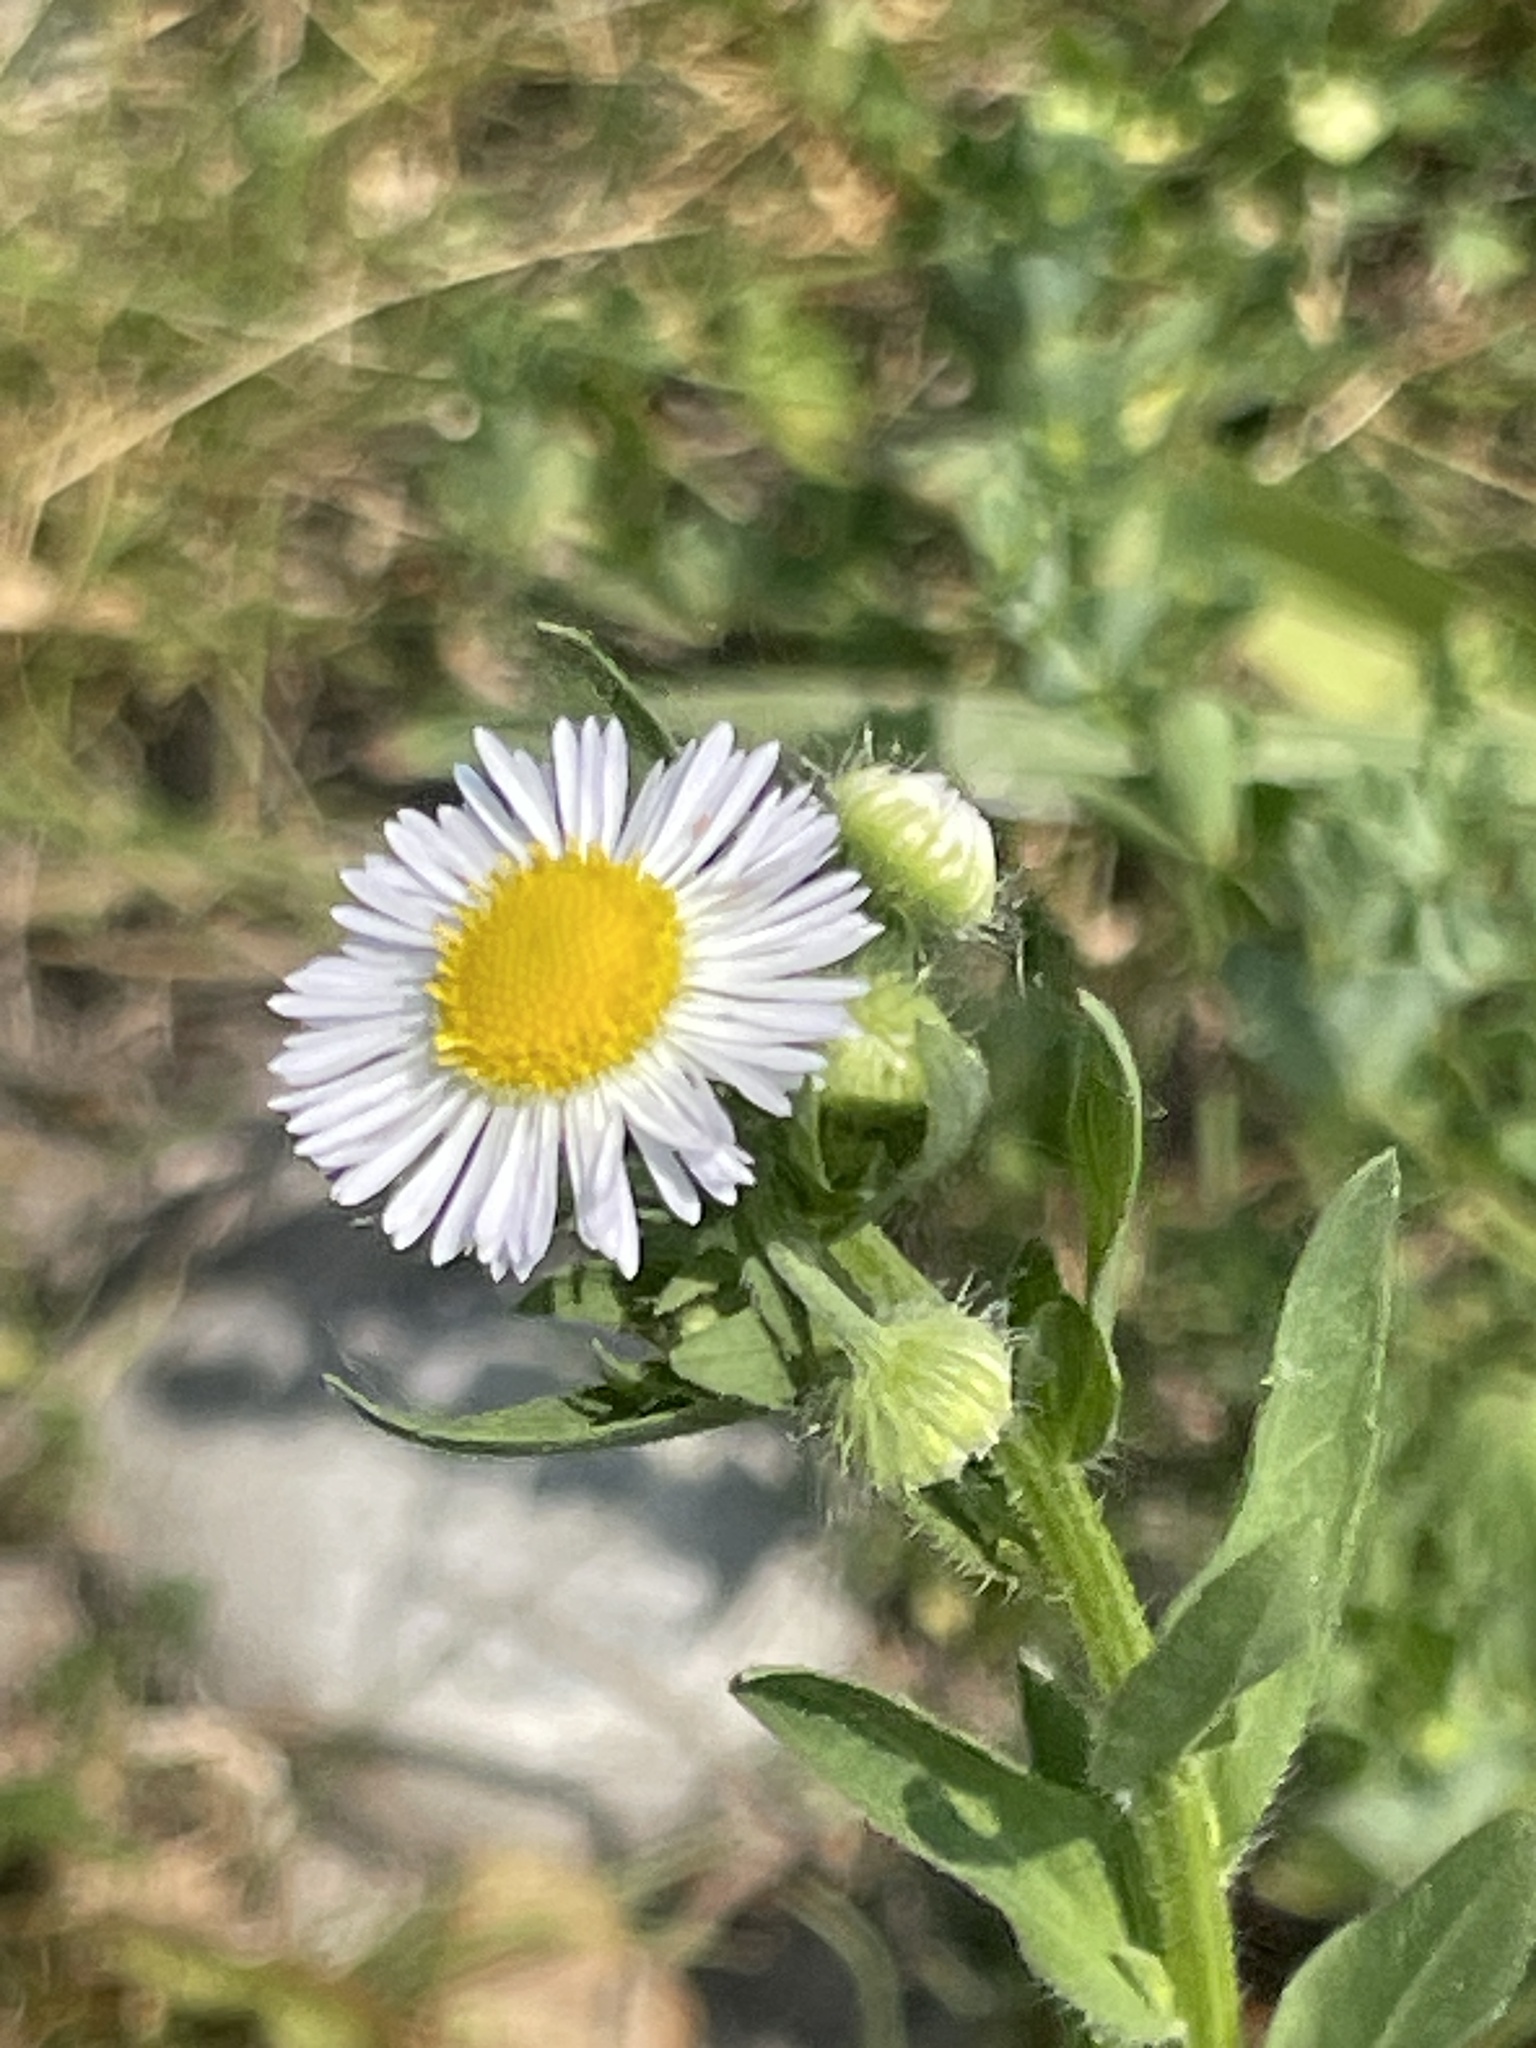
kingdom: Plantae
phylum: Tracheophyta
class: Magnoliopsida
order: Asterales
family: Asteraceae
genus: Erigeron
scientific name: Erigeron annuus
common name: Tall fleabane
